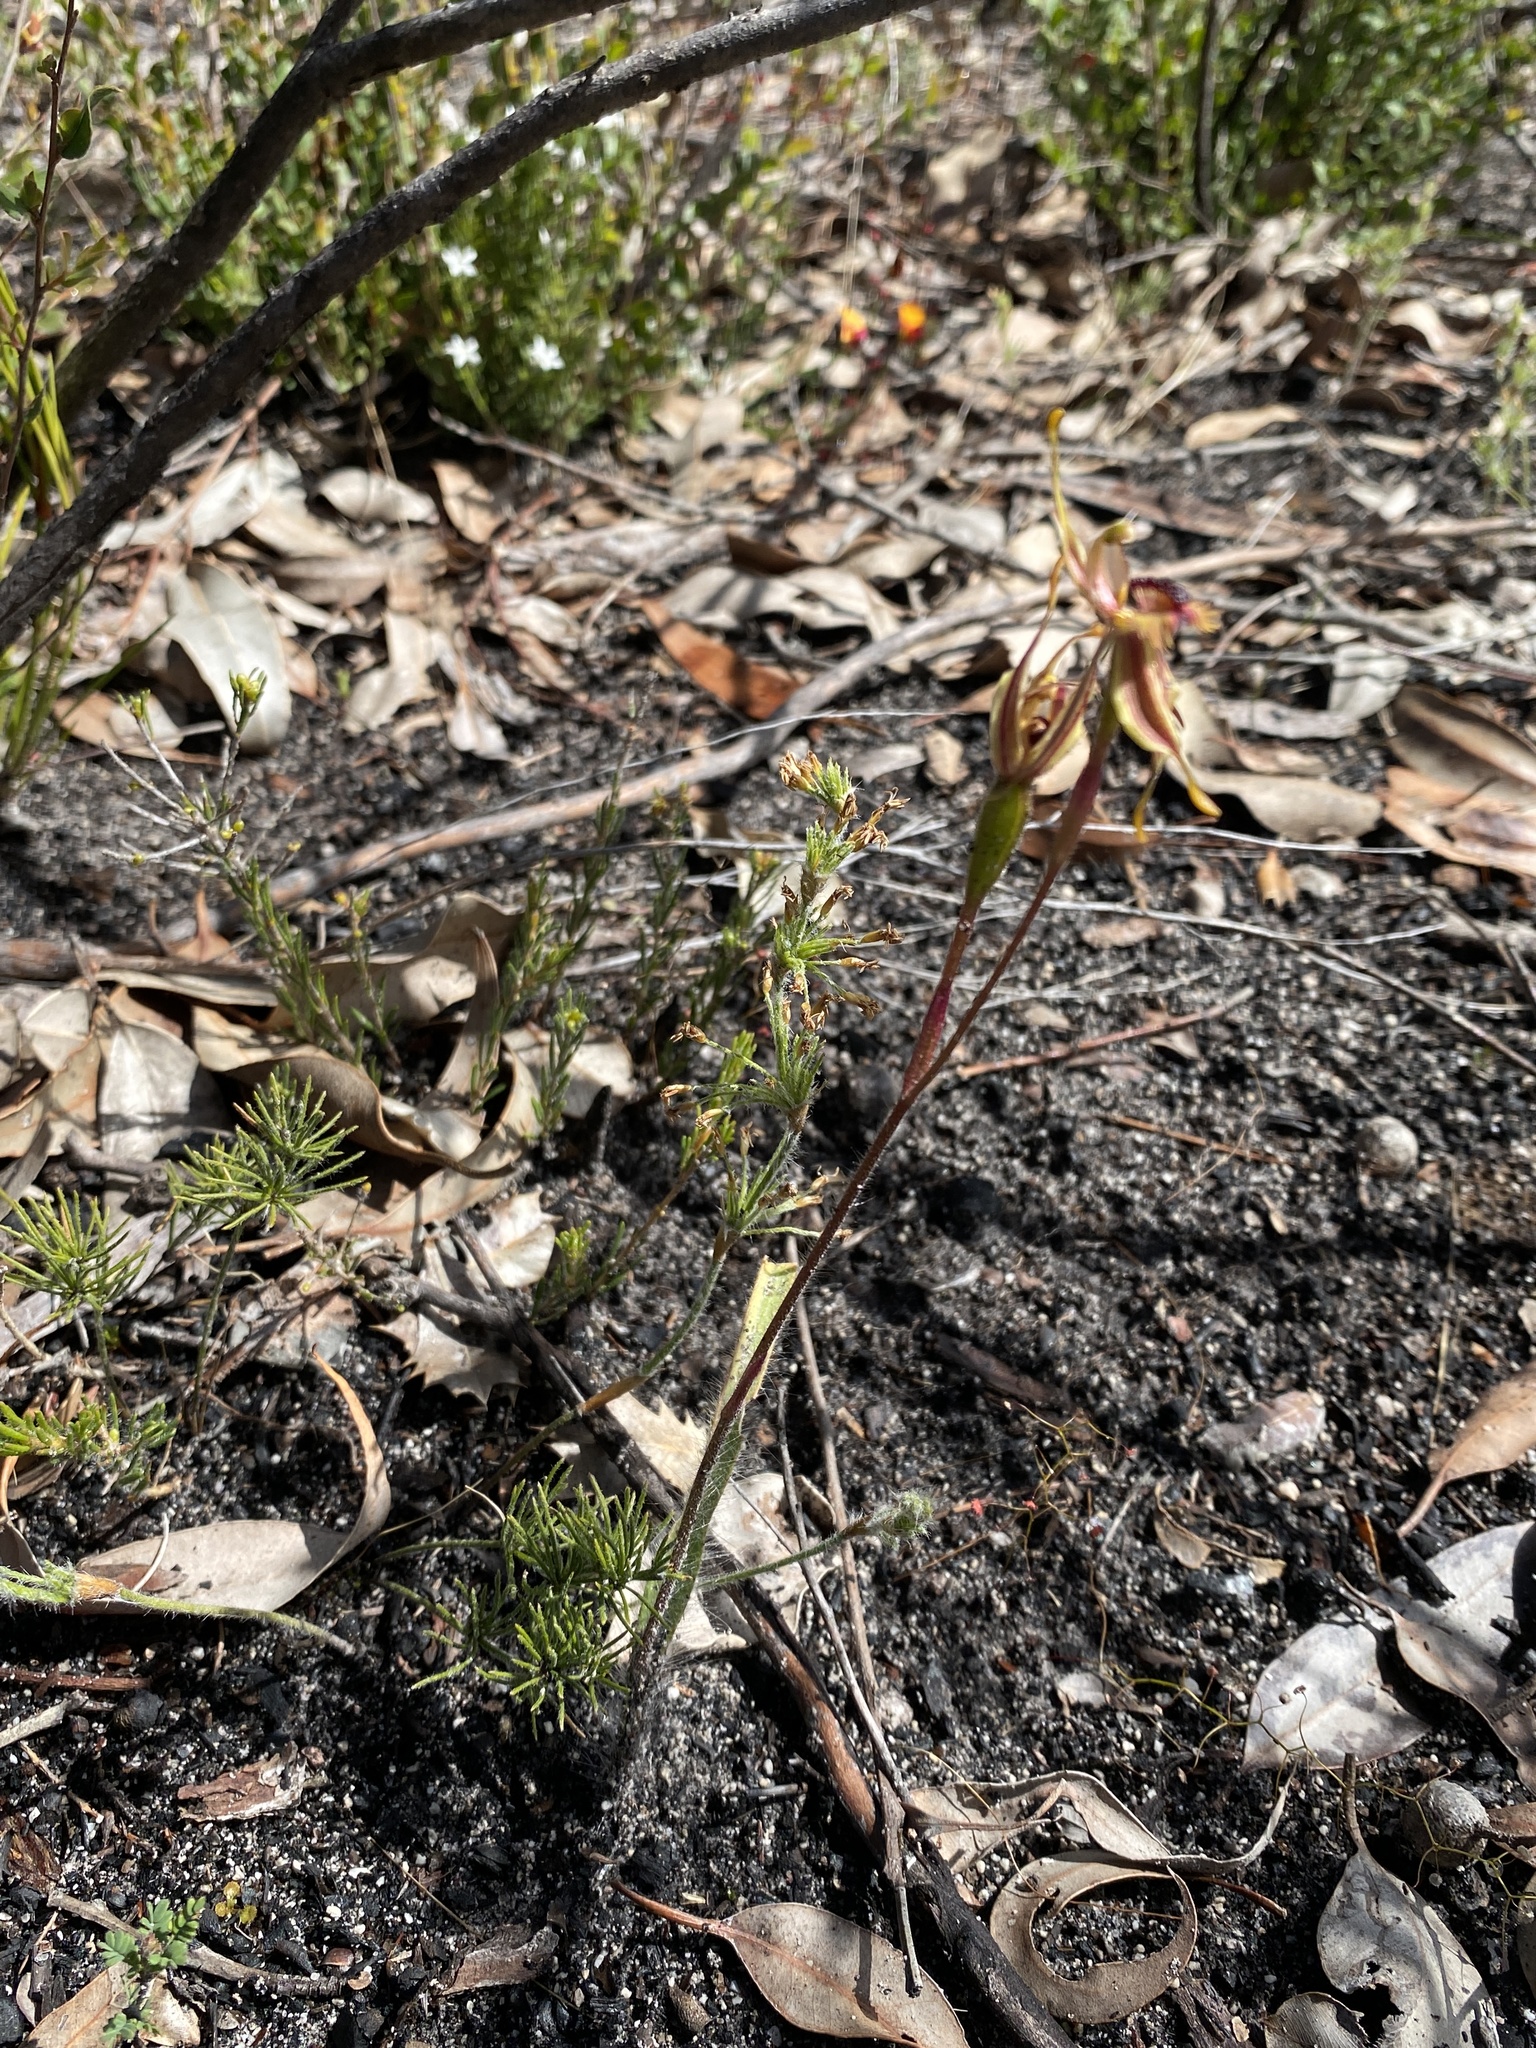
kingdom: Plantae
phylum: Tracheophyta
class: Liliopsida
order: Asparagales
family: Orchidaceae
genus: Caladenia
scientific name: Caladenia plicata
